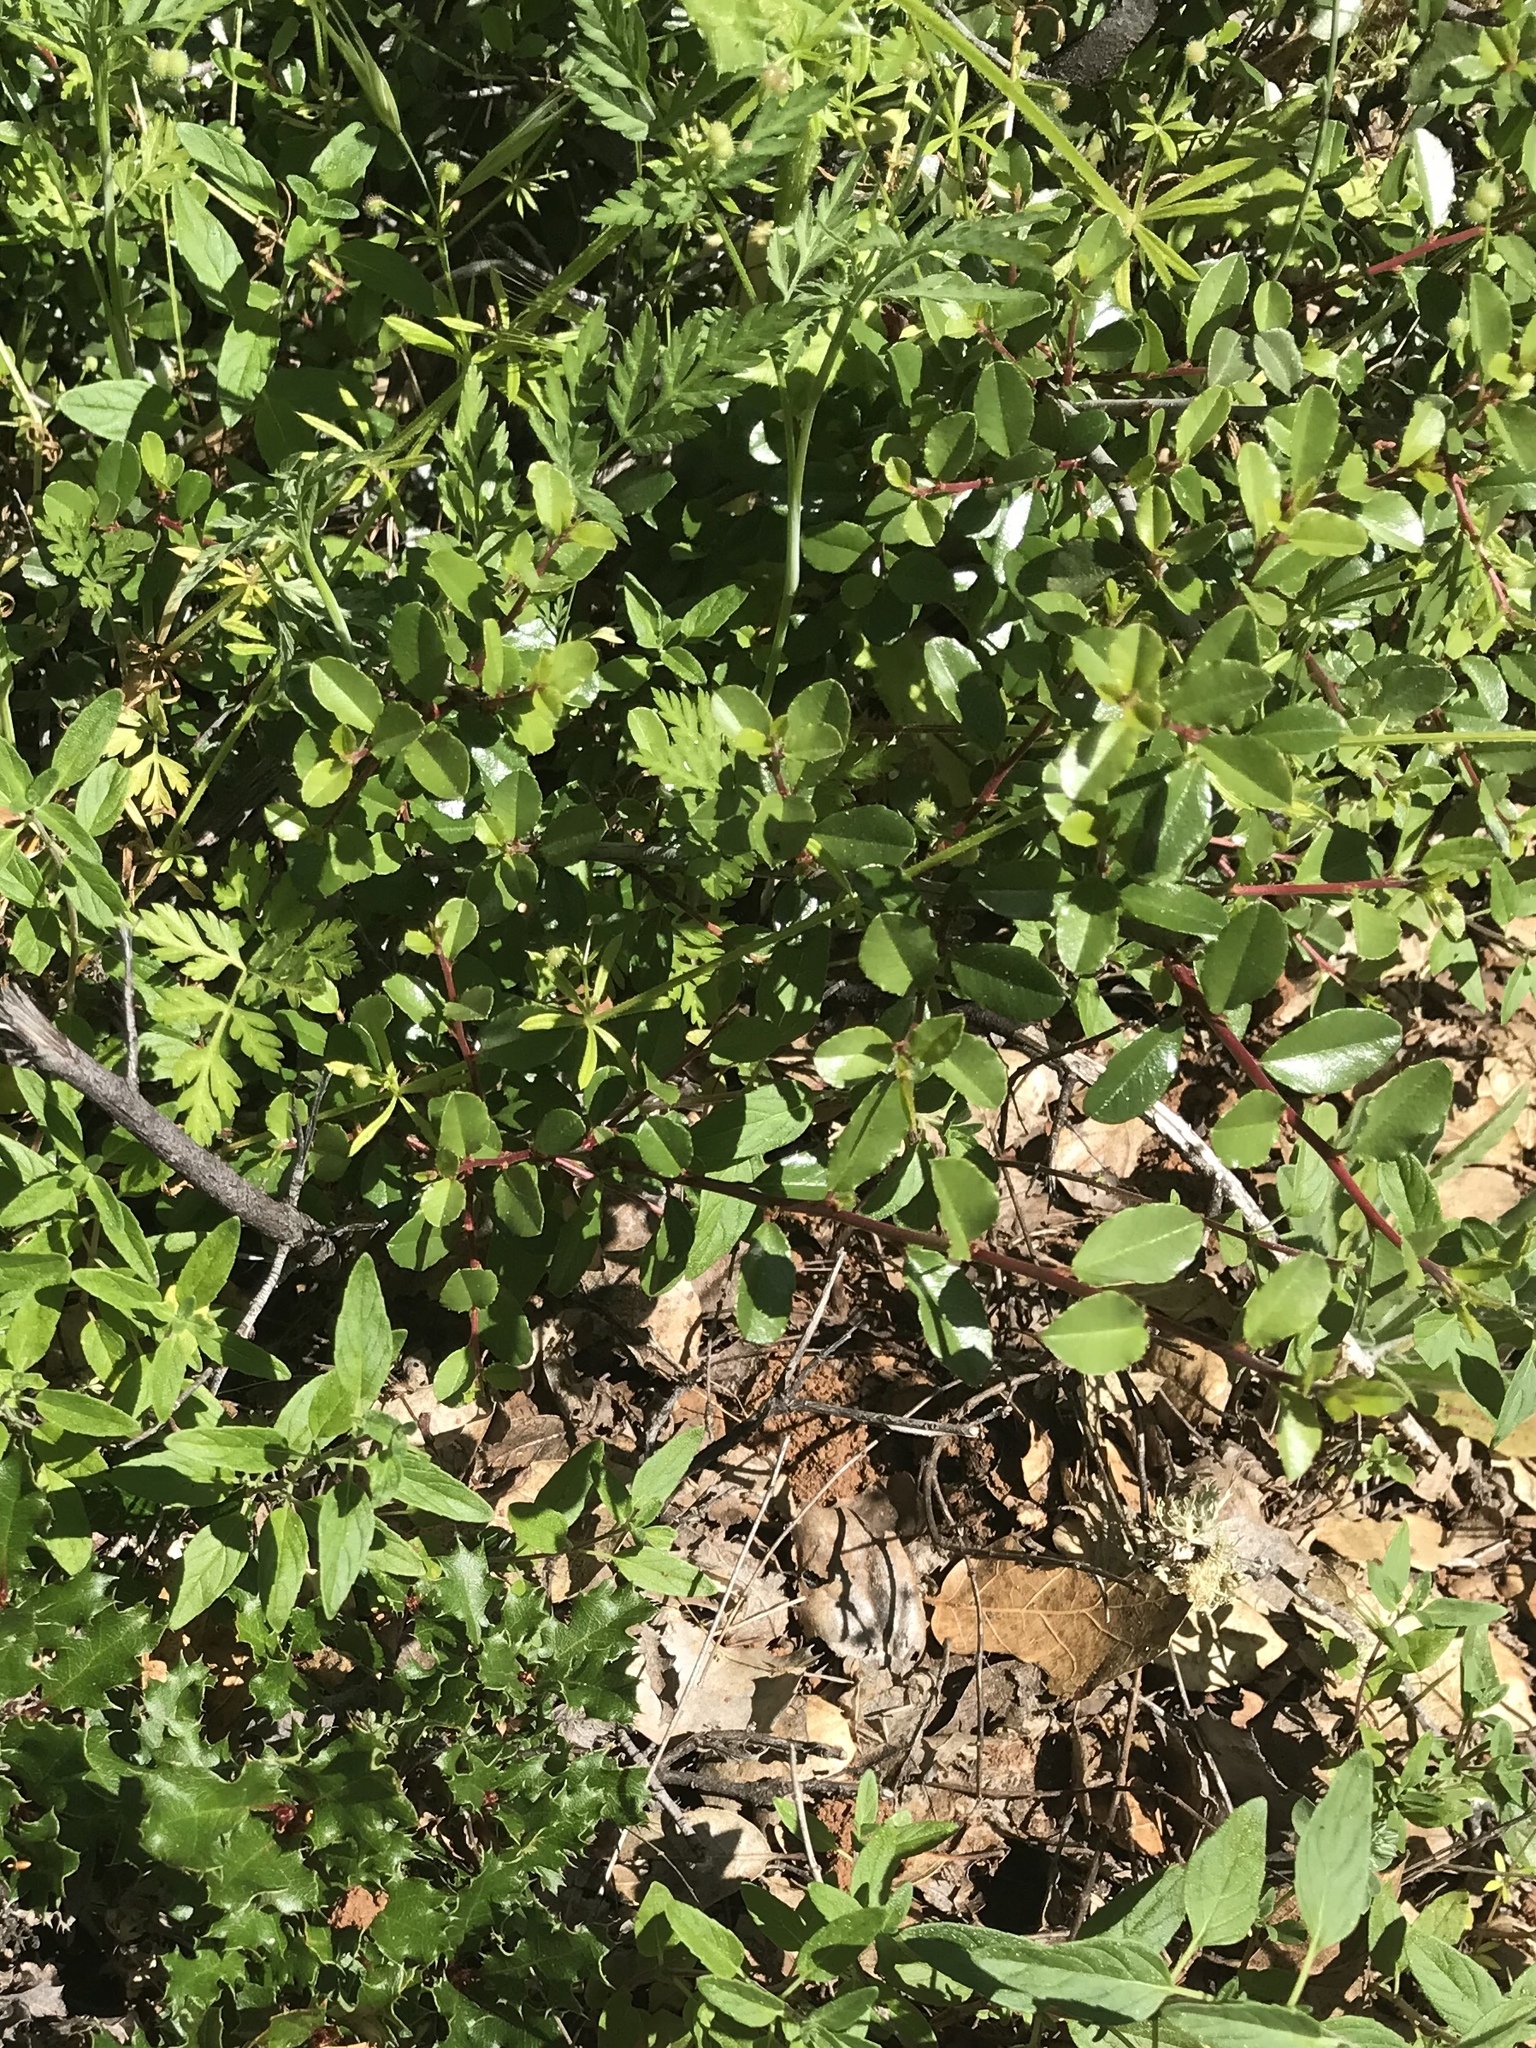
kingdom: Plantae
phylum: Tracheophyta
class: Magnoliopsida
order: Rosales
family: Rhamnaceae
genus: Endotropis
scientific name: Endotropis crocea
